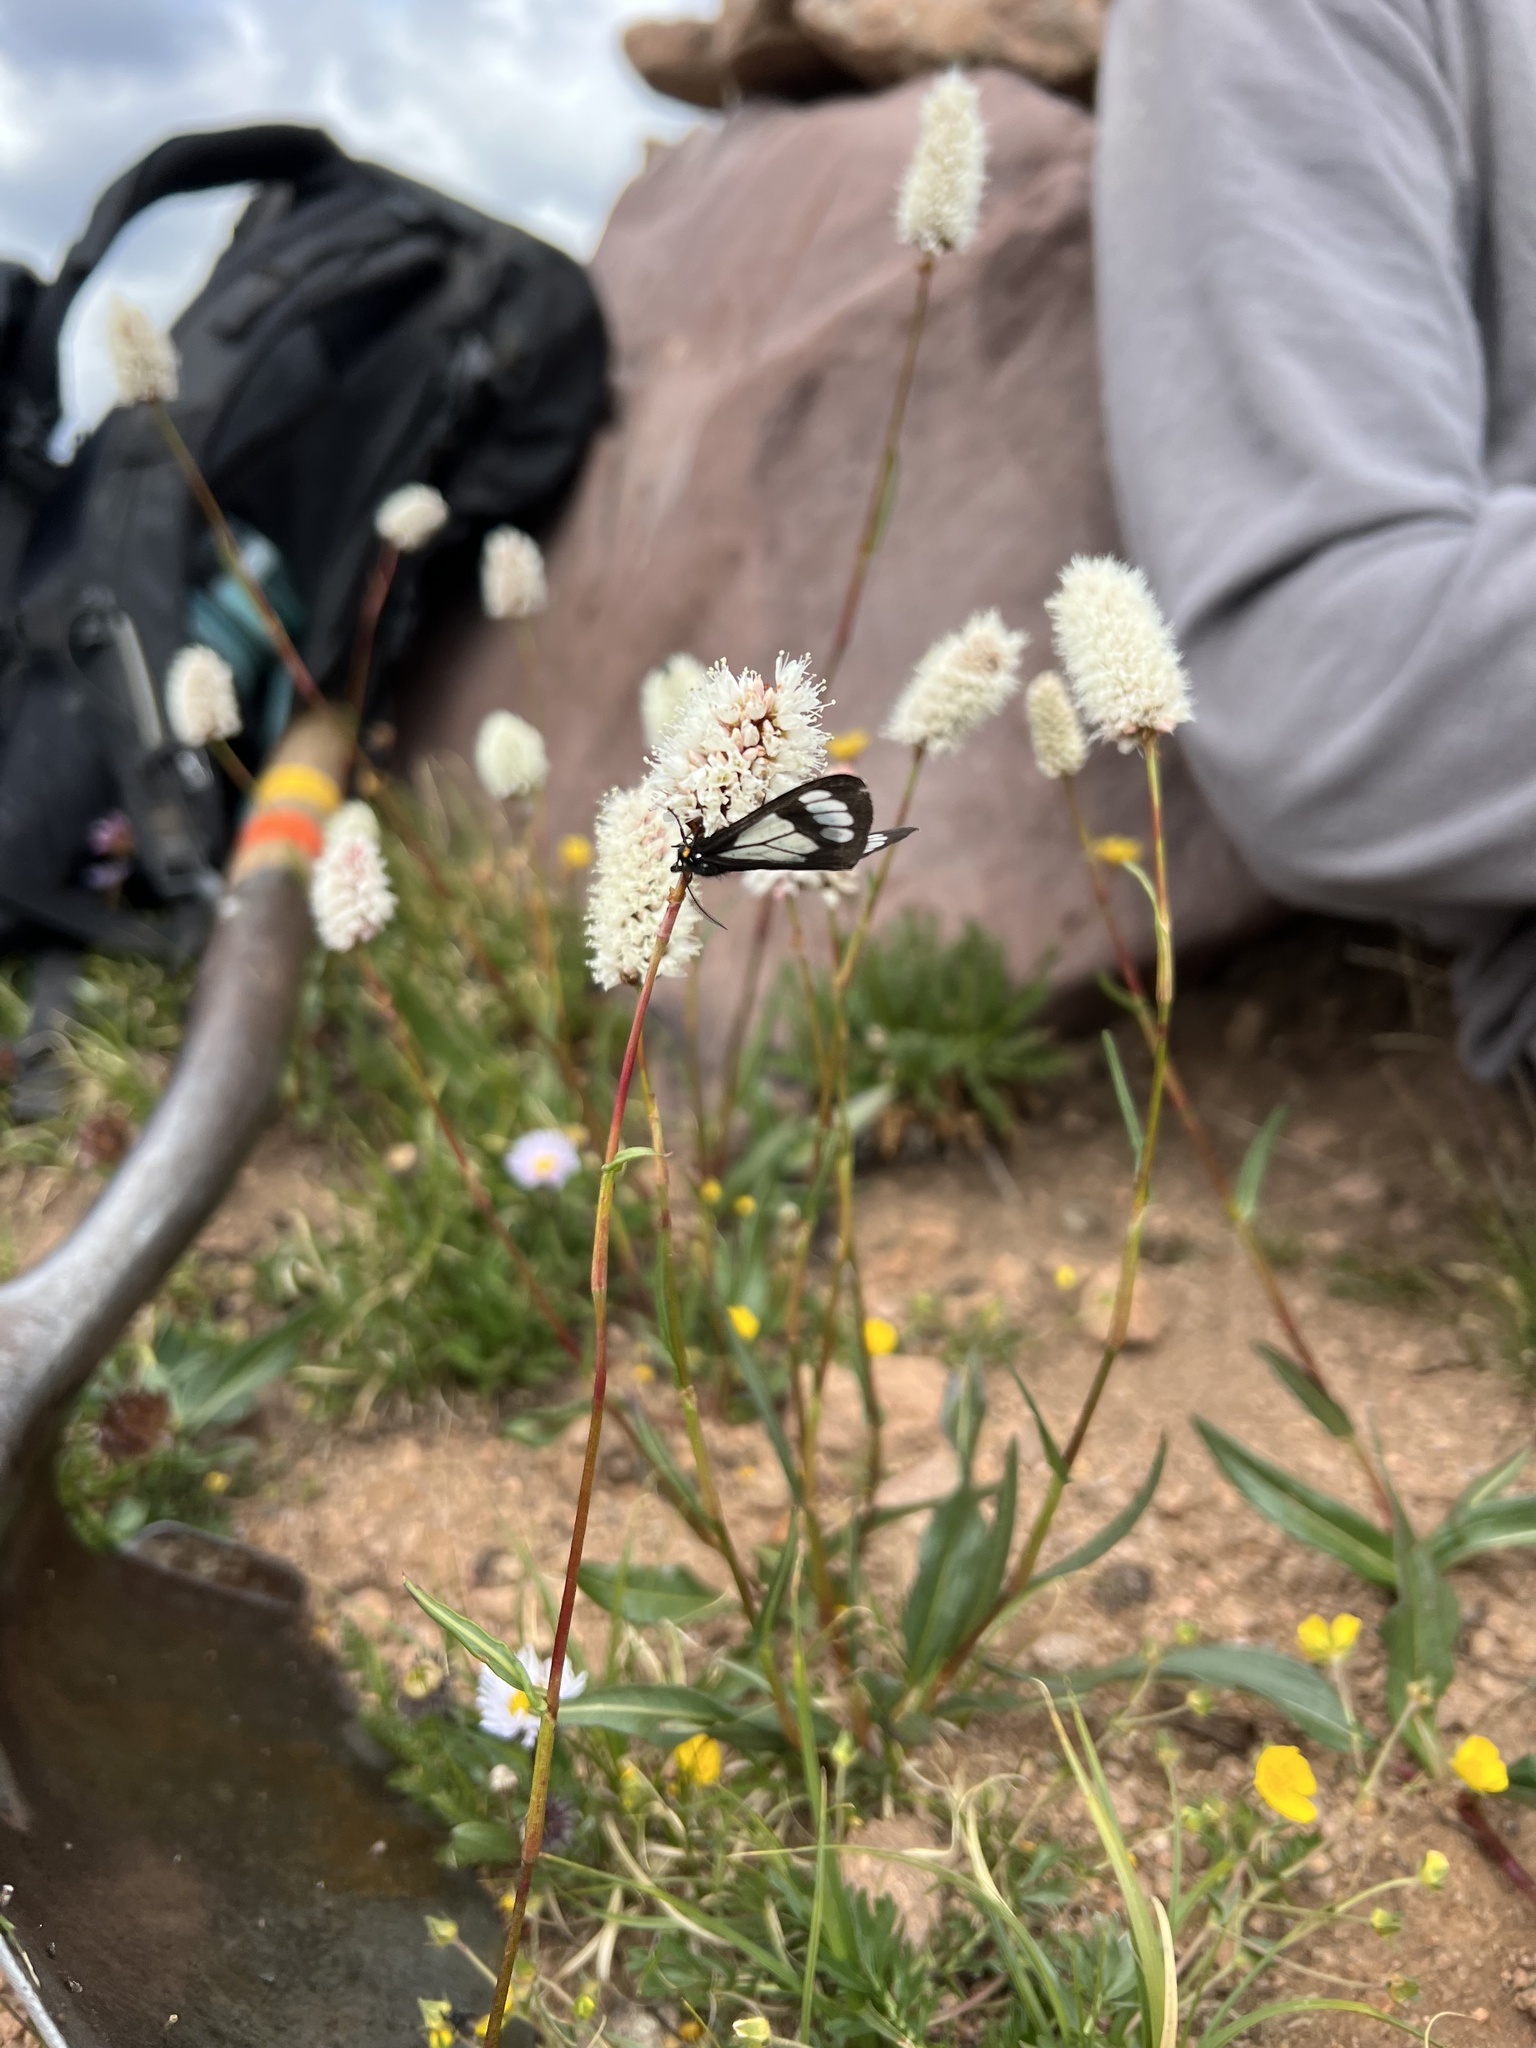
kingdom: Animalia
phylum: Arthropoda
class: Insecta
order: Lepidoptera
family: Erebidae
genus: Gnophaela
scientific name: Gnophaela vermiculata
